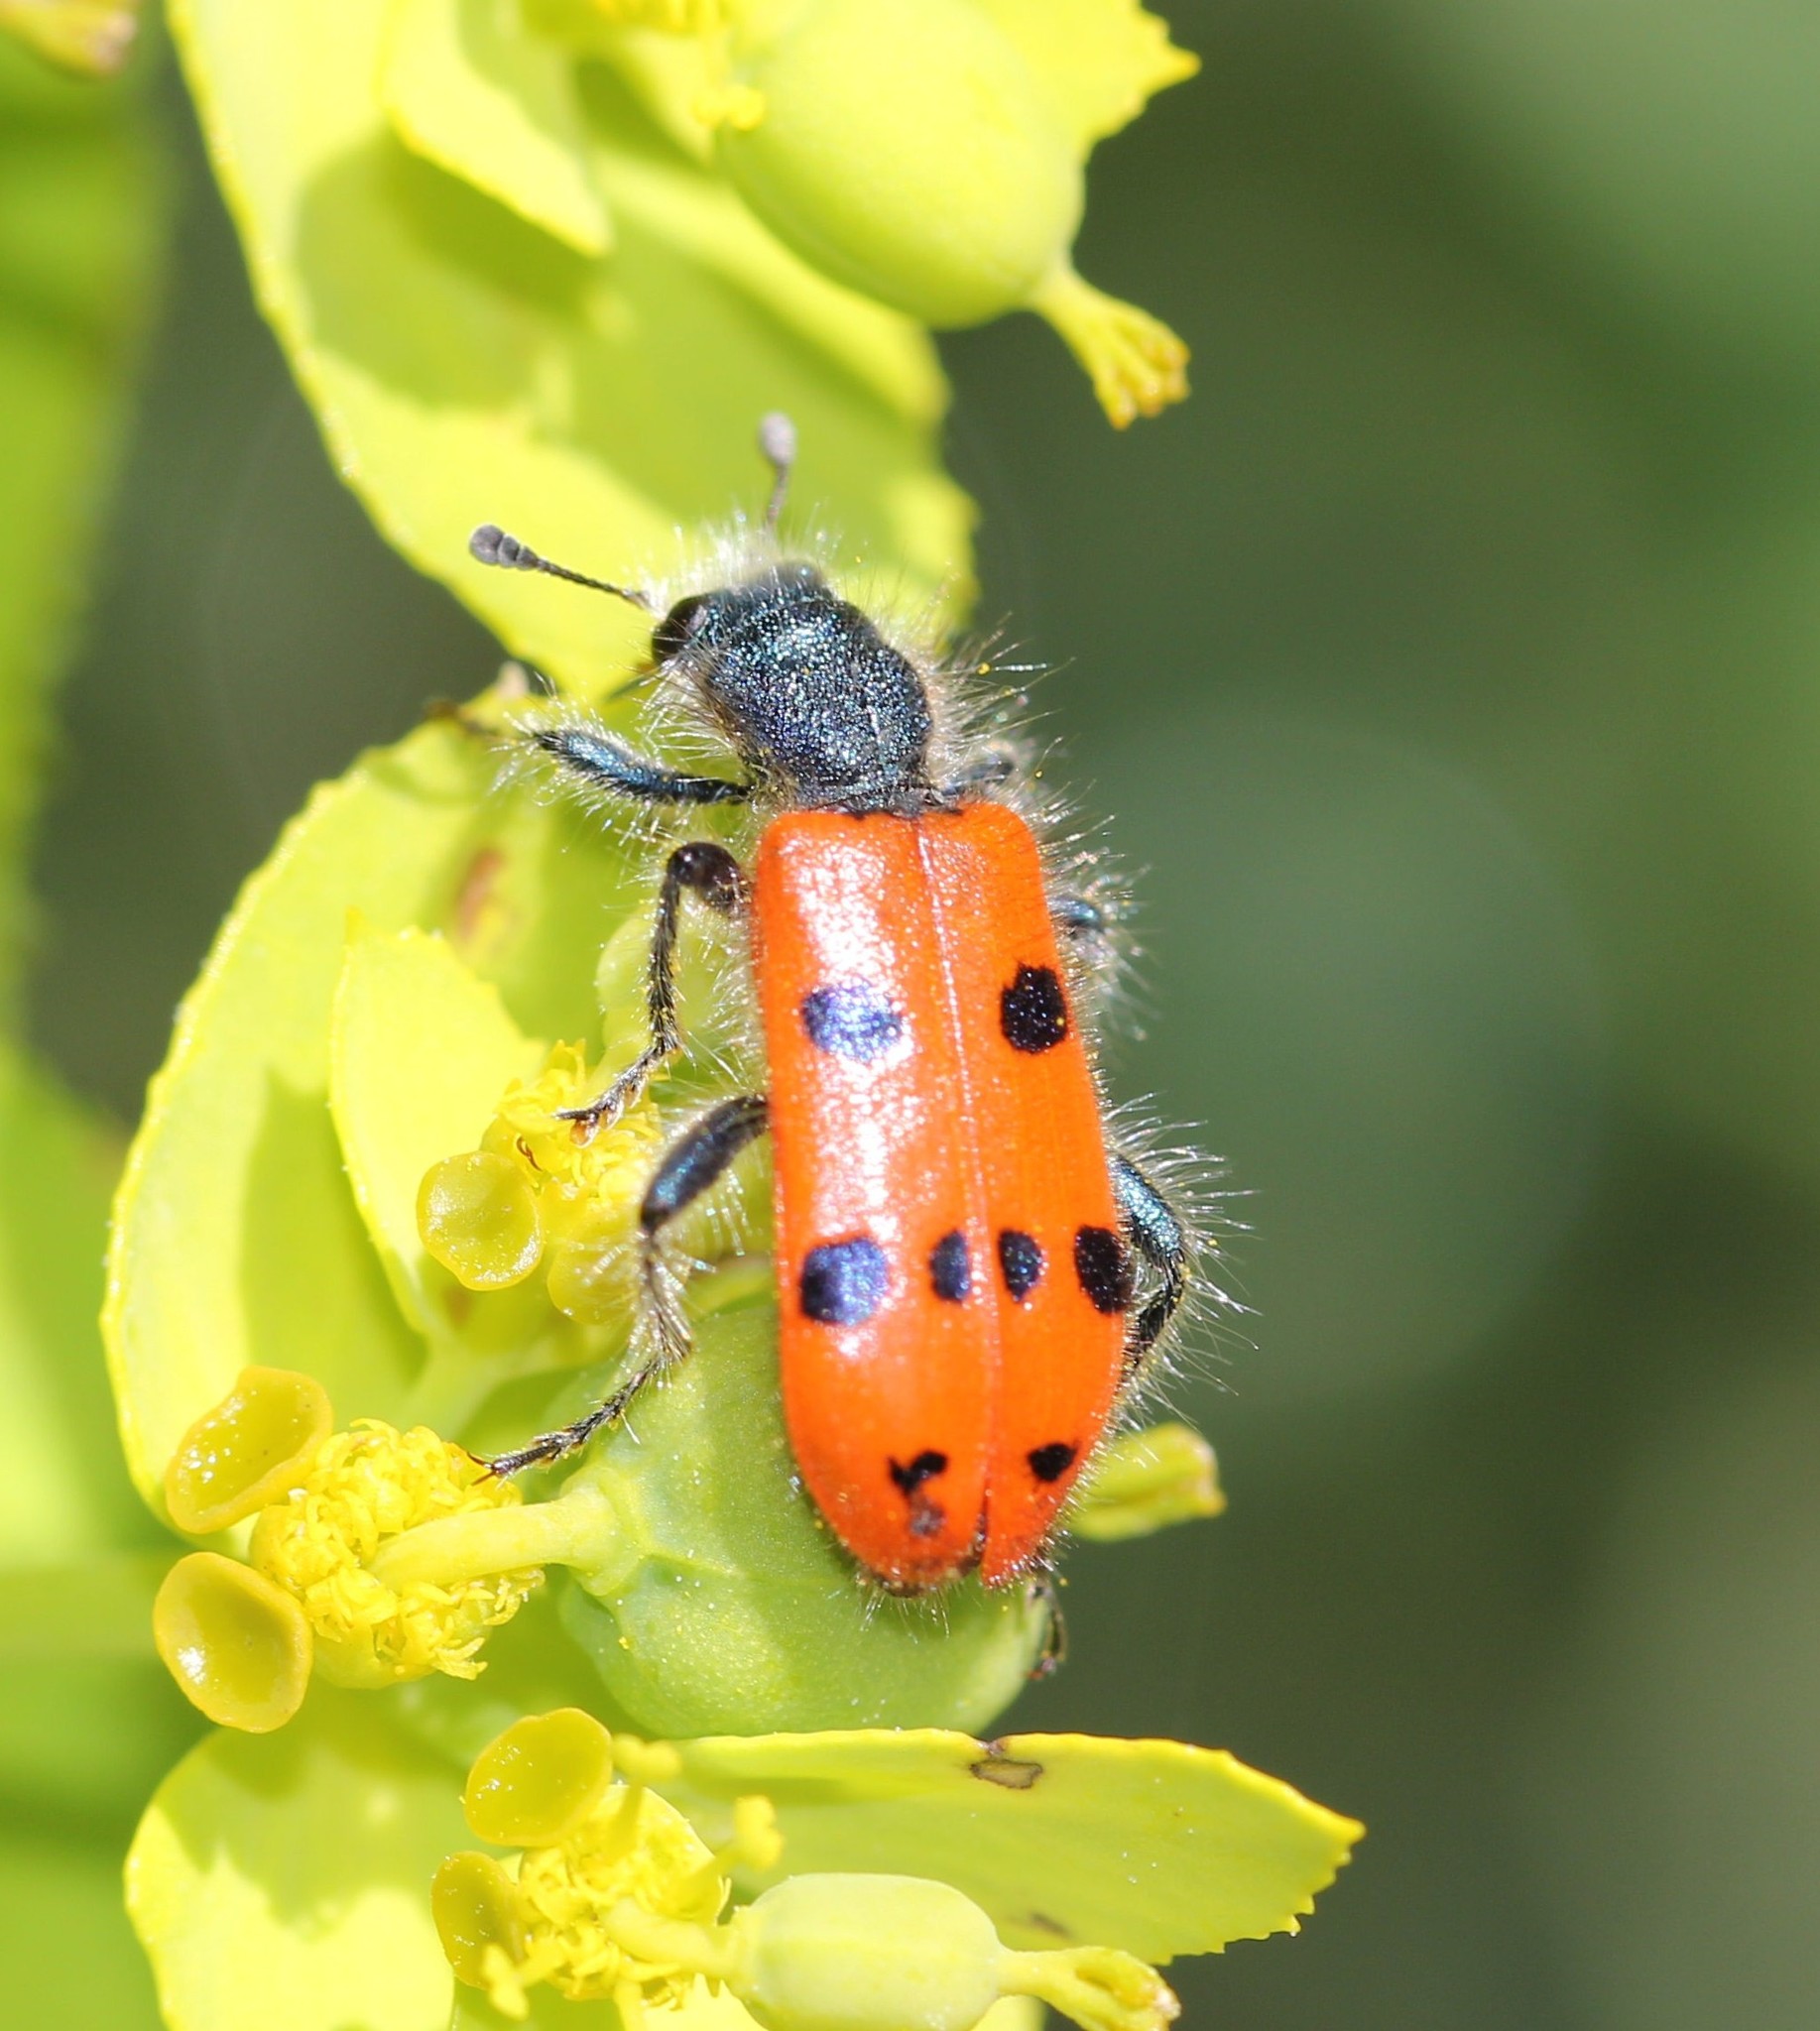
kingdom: Animalia
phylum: Arthropoda
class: Insecta
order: Coleoptera
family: Cleridae
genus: Trichodes
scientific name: Trichodes octopunctatus
